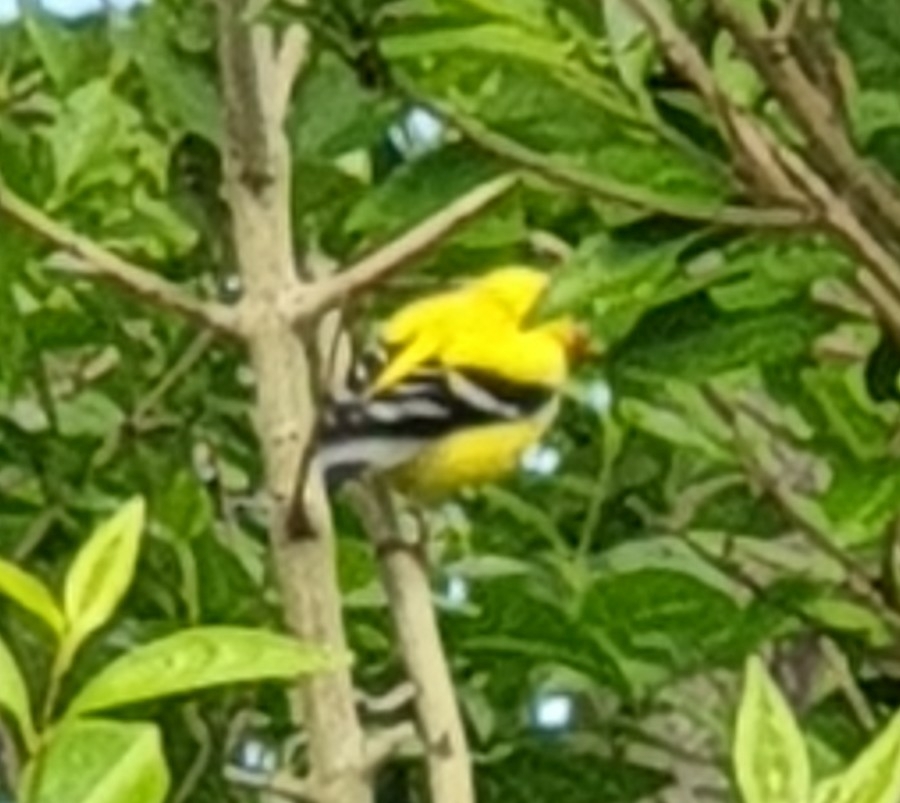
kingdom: Animalia
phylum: Chordata
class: Aves
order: Passeriformes
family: Fringillidae
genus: Spinus
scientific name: Spinus tristis
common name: American goldfinch
